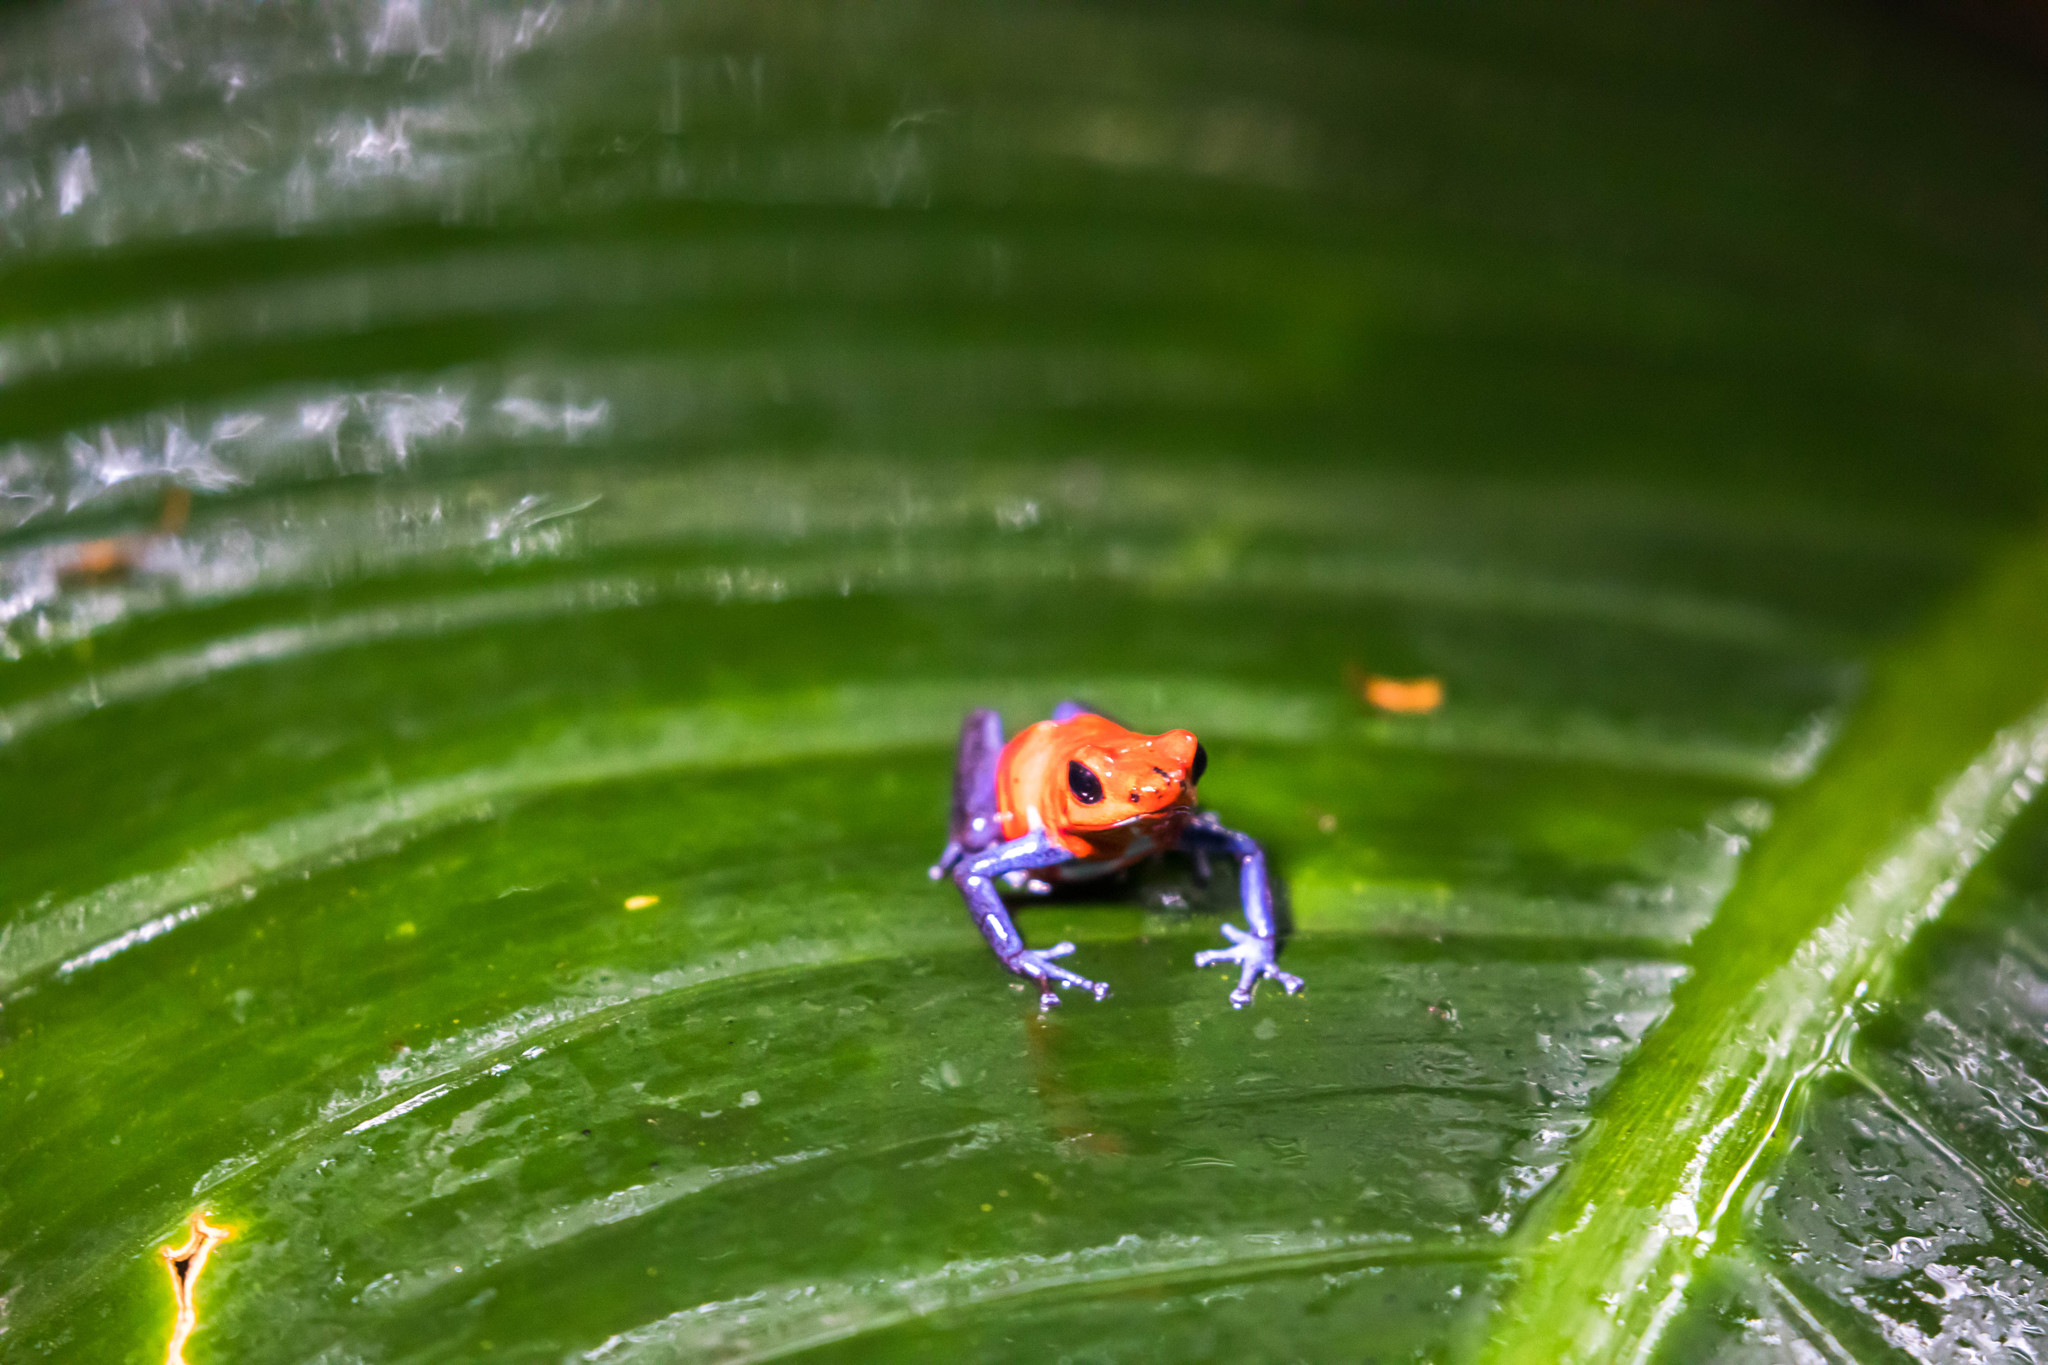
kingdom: Animalia
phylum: Chordata
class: Amphibia
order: Anura
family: Dendrobatidae
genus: Oophaga
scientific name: Oophaga pumilio
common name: Flaming poison frog
